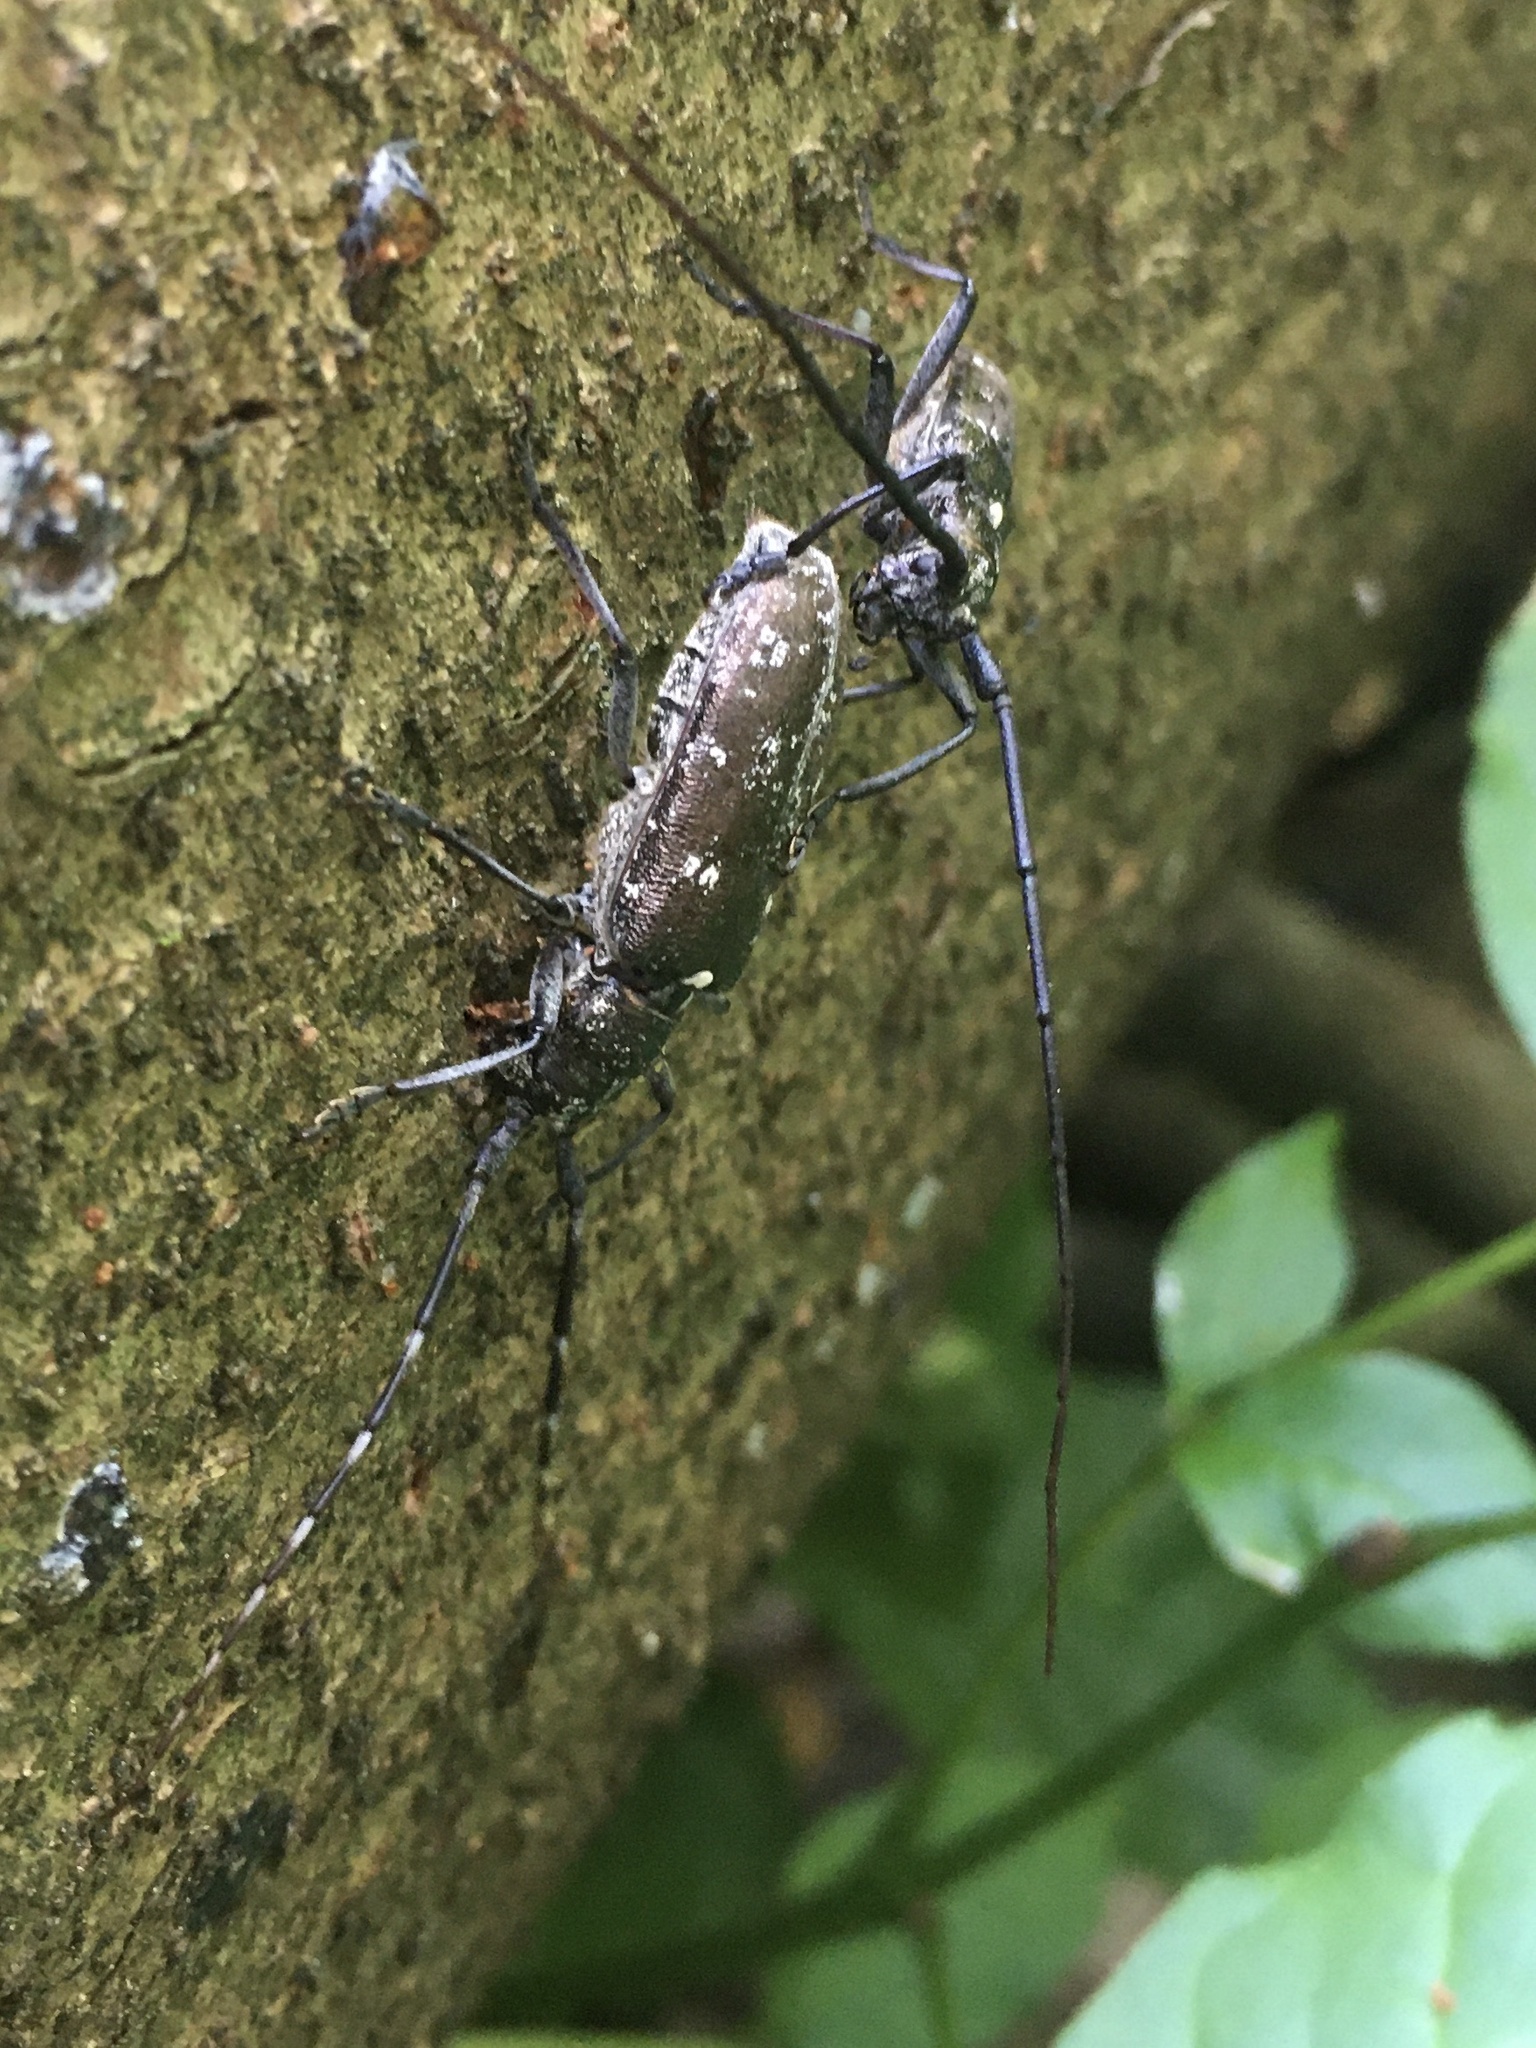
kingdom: Animalia
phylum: Arthropoda
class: Insecta
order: Coleoptera
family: Cerambycidae
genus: Monochamus
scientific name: Monochamus scutellatus
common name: White-spotted sawyer beetle
